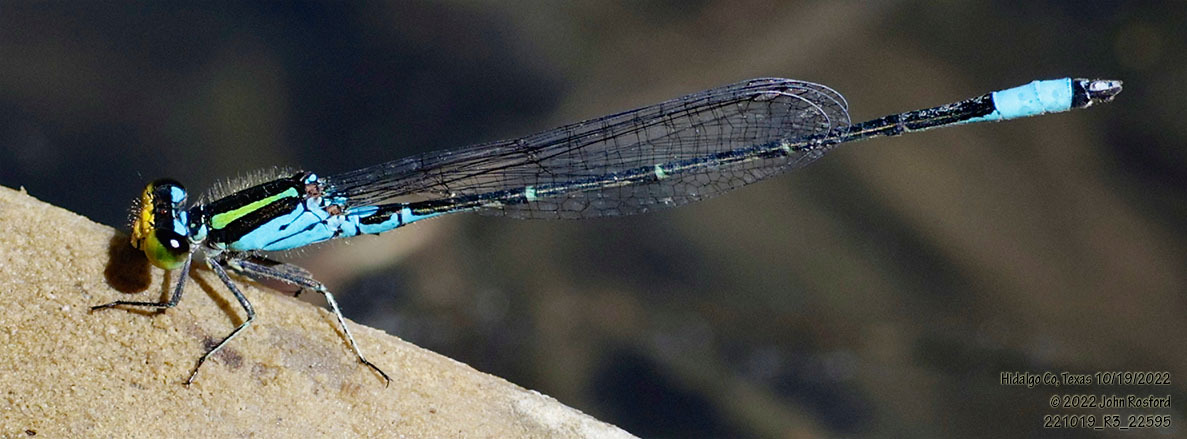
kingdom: Animalia
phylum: Arthropoda
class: Insecta
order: Odonata
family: Coenagrionidae
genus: Neoerythromma
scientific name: Neoerythromma cultellatum
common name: Caribbean yellowface
